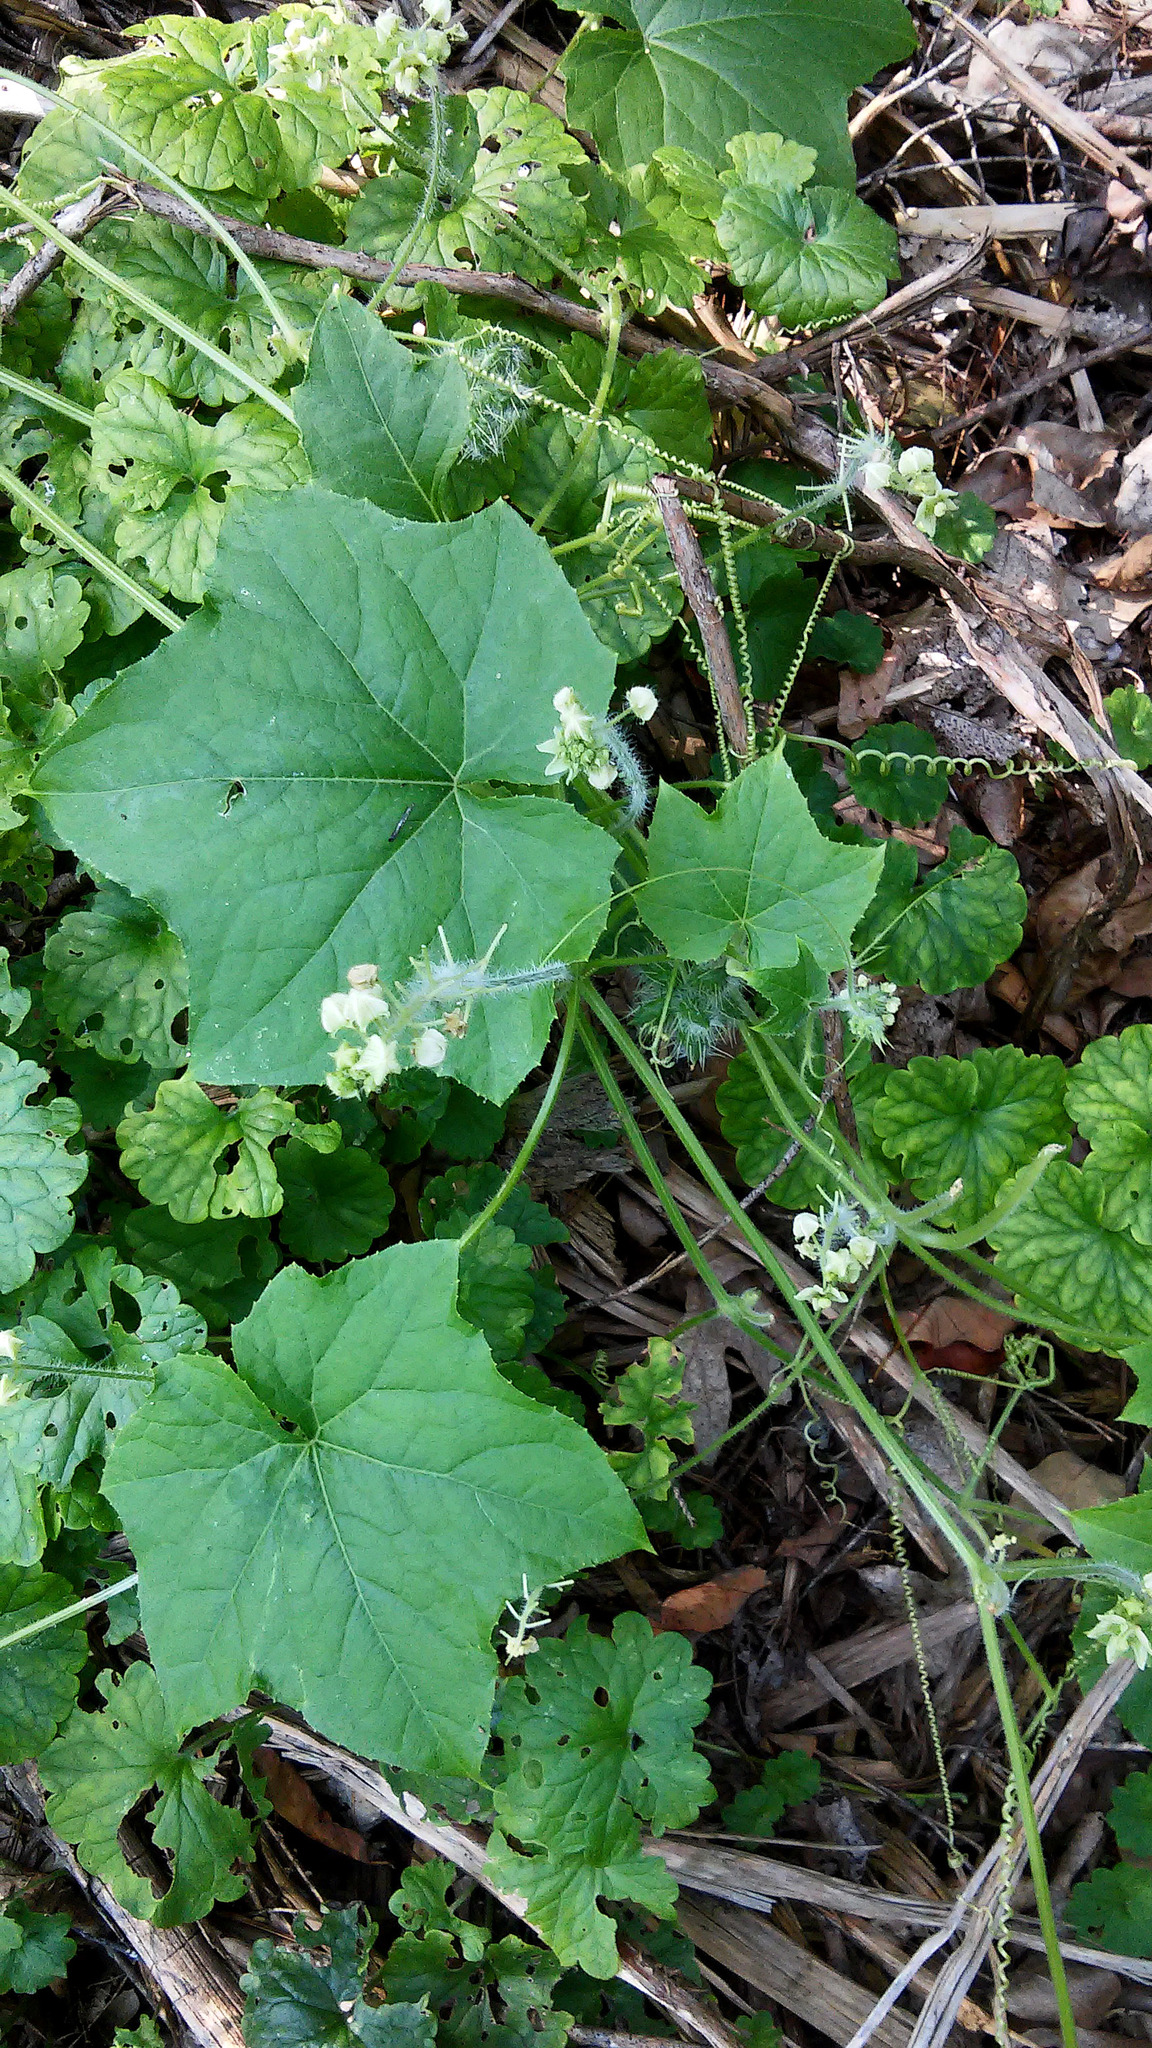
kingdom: Plantae
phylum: Tracheophyta
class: Magnoliopsida
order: Cucurbitales
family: Cucurbitaceae
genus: Sicyos
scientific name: Sicyos angulatus
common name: Angled burr cucumber
